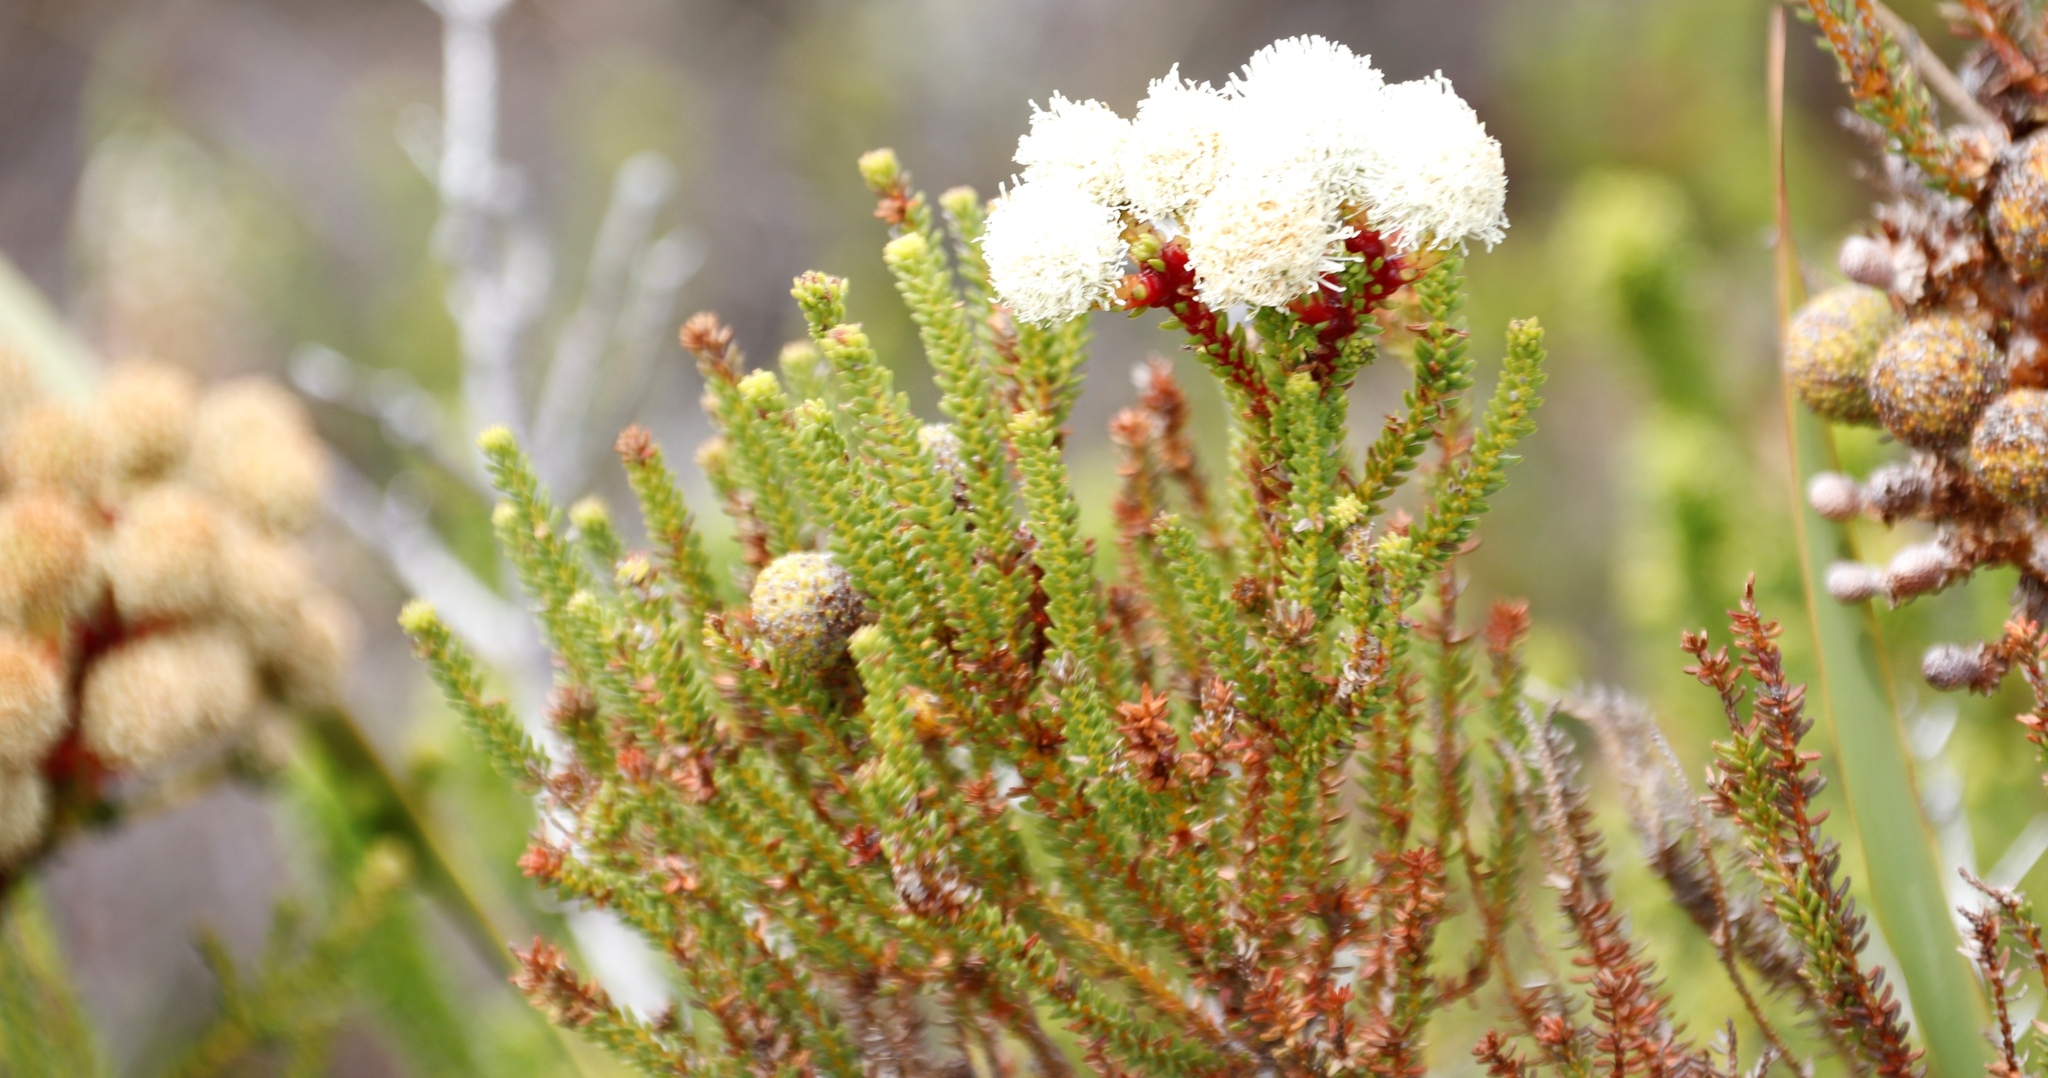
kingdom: Plantae
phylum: Tracheophyta
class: Magnoliopsida
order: Bruniales
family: Bruniaceae
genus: Berzelia
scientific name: Berzelia abrotanoides
